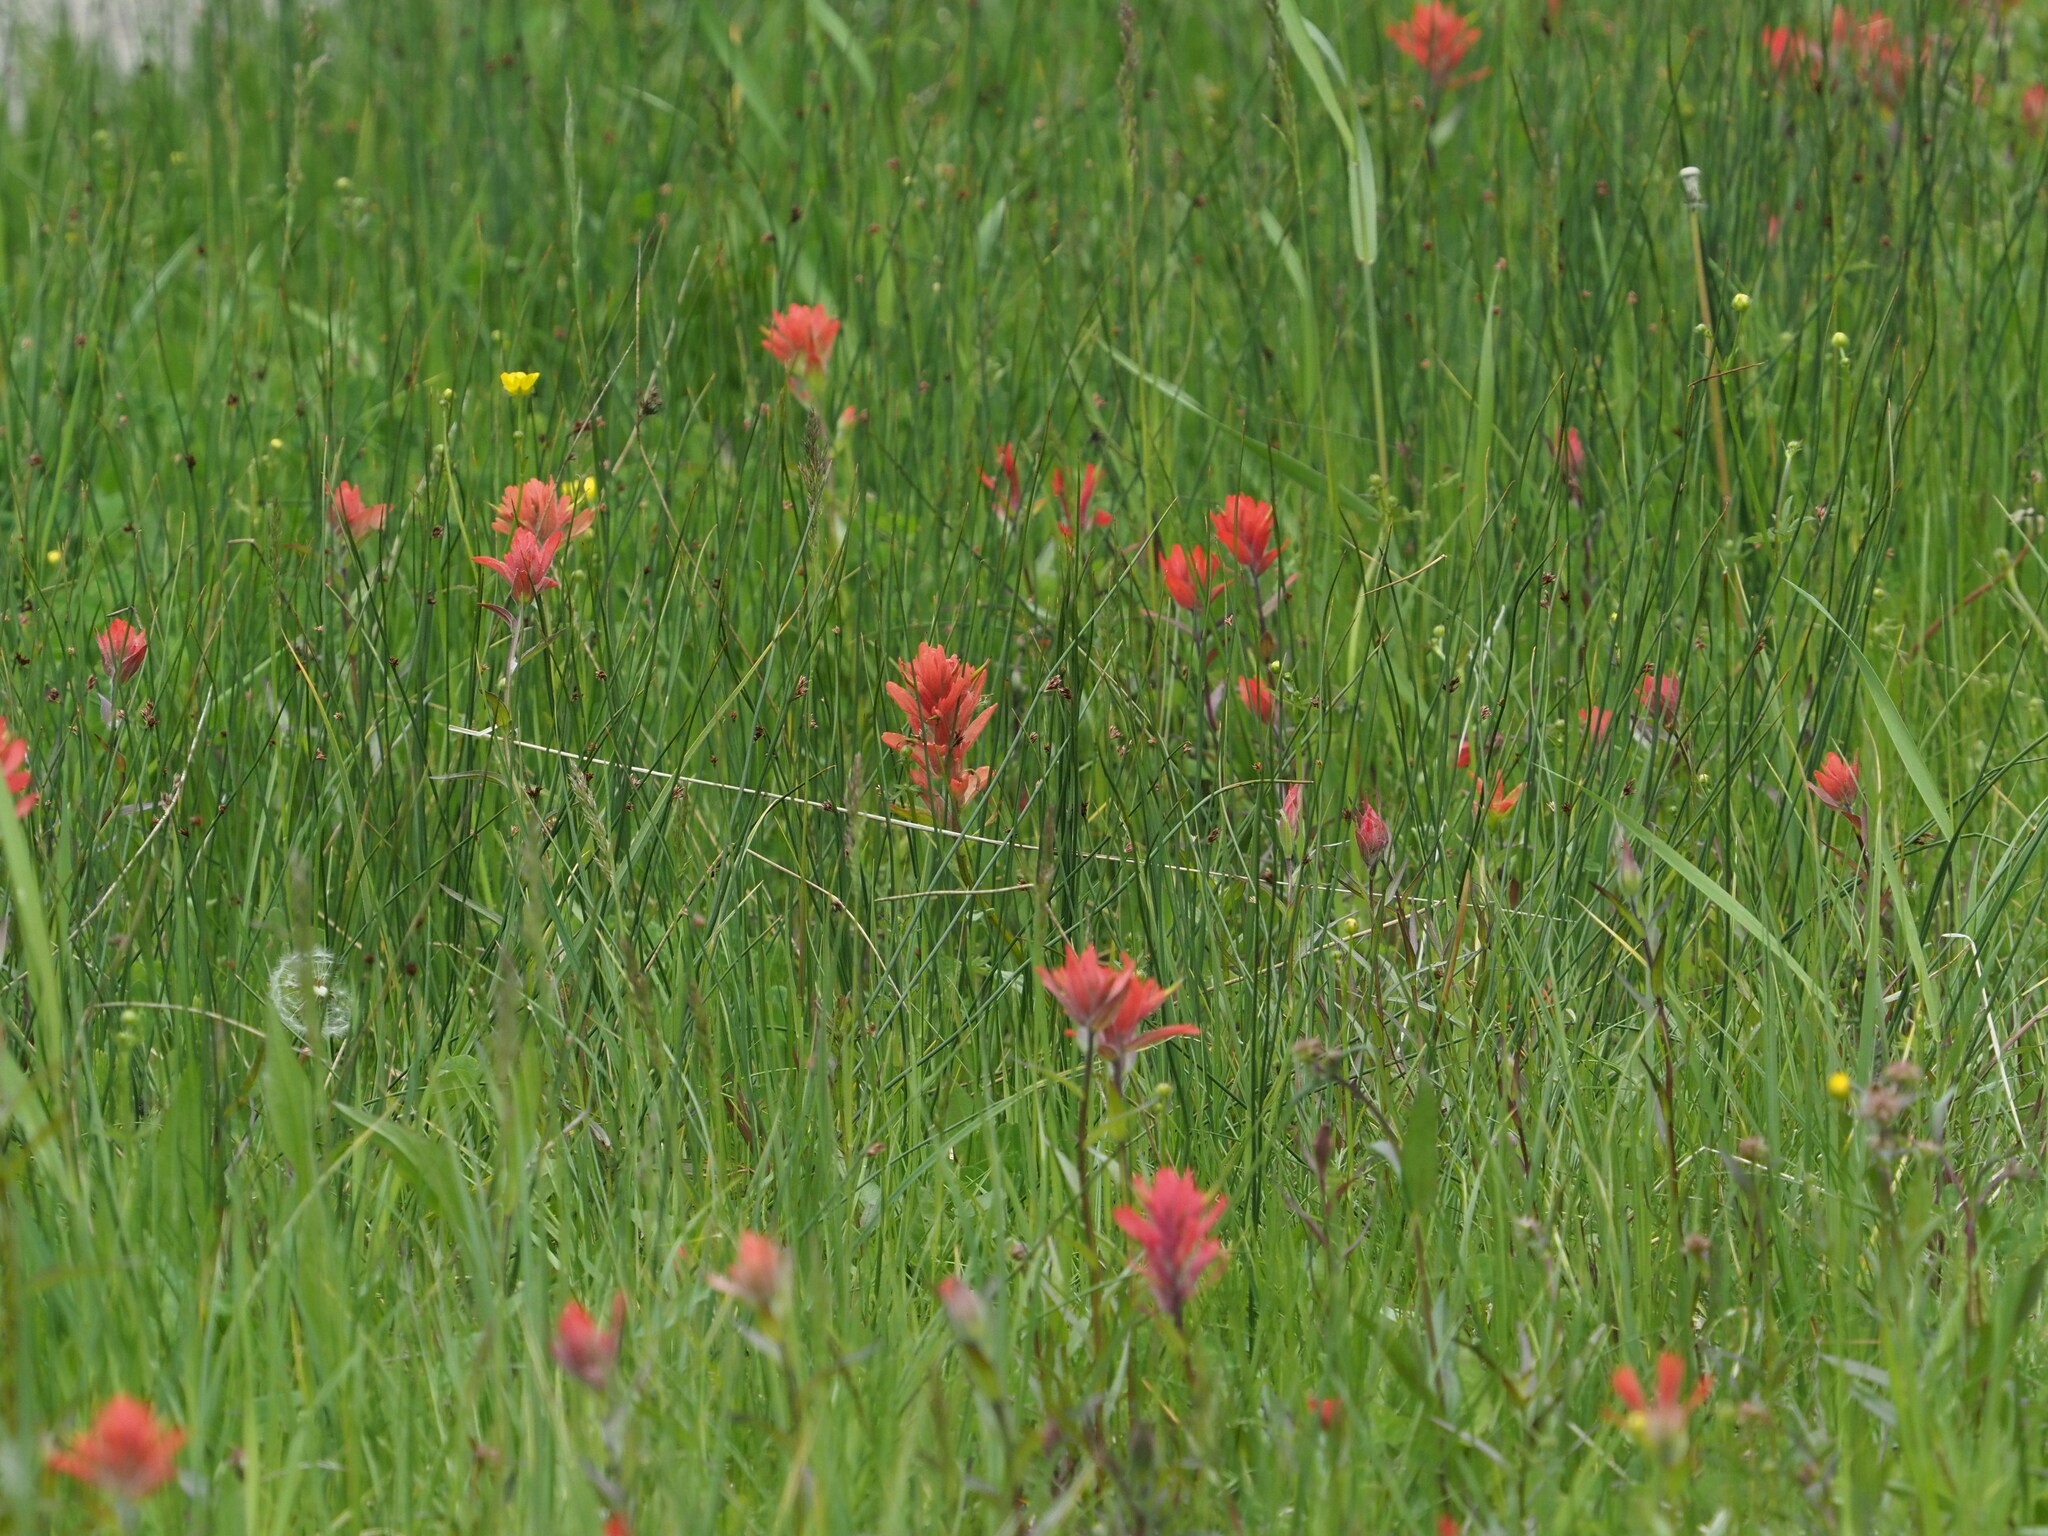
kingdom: Plantae
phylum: Tracheophyta
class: Magnoliopsida
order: Lamiales
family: Orobanchaceae
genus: Castilleja
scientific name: Castilleja miniata
